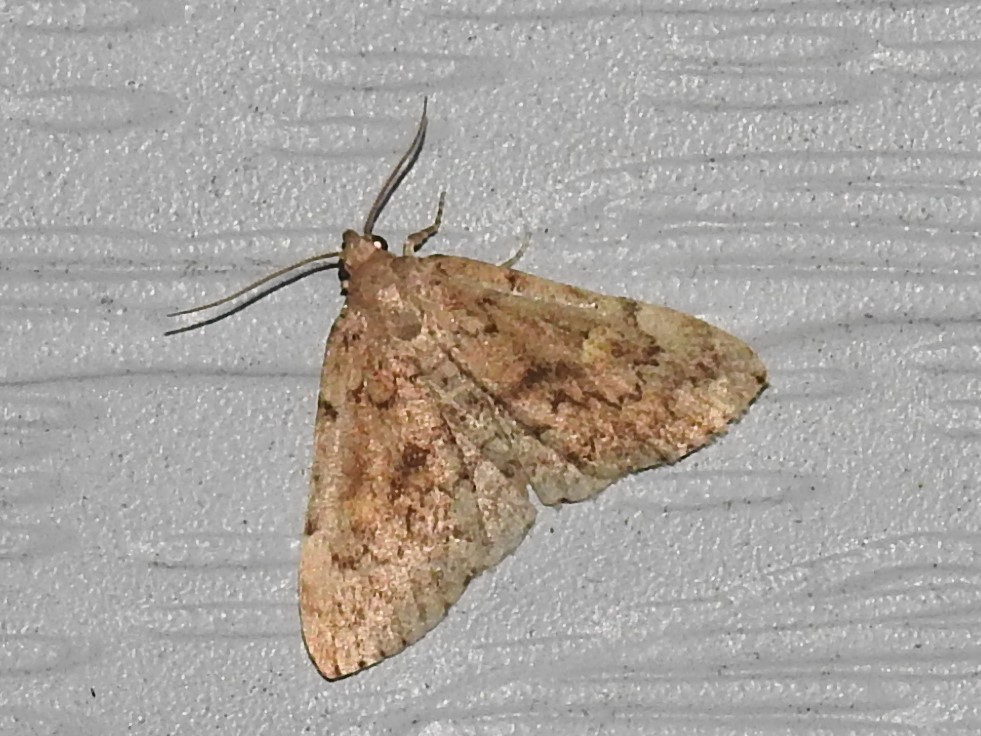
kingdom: Animalia
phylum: Arthropoda
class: Insecta
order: Lepidoptera
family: Erebidae
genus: Idia
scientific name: Idia aemula
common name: Common idia moth
